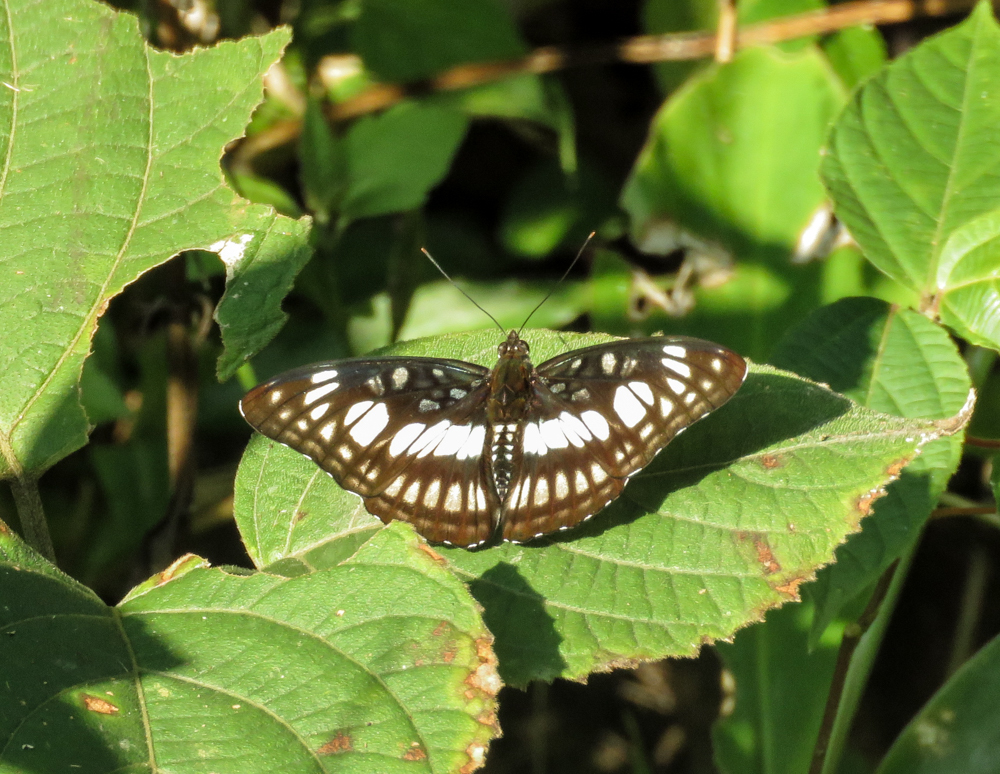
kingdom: Animalia
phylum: Arthropoda
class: Insecta
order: Lepidoptera
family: Nymphalidae
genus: Parathyma
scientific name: Parathyma ranga
